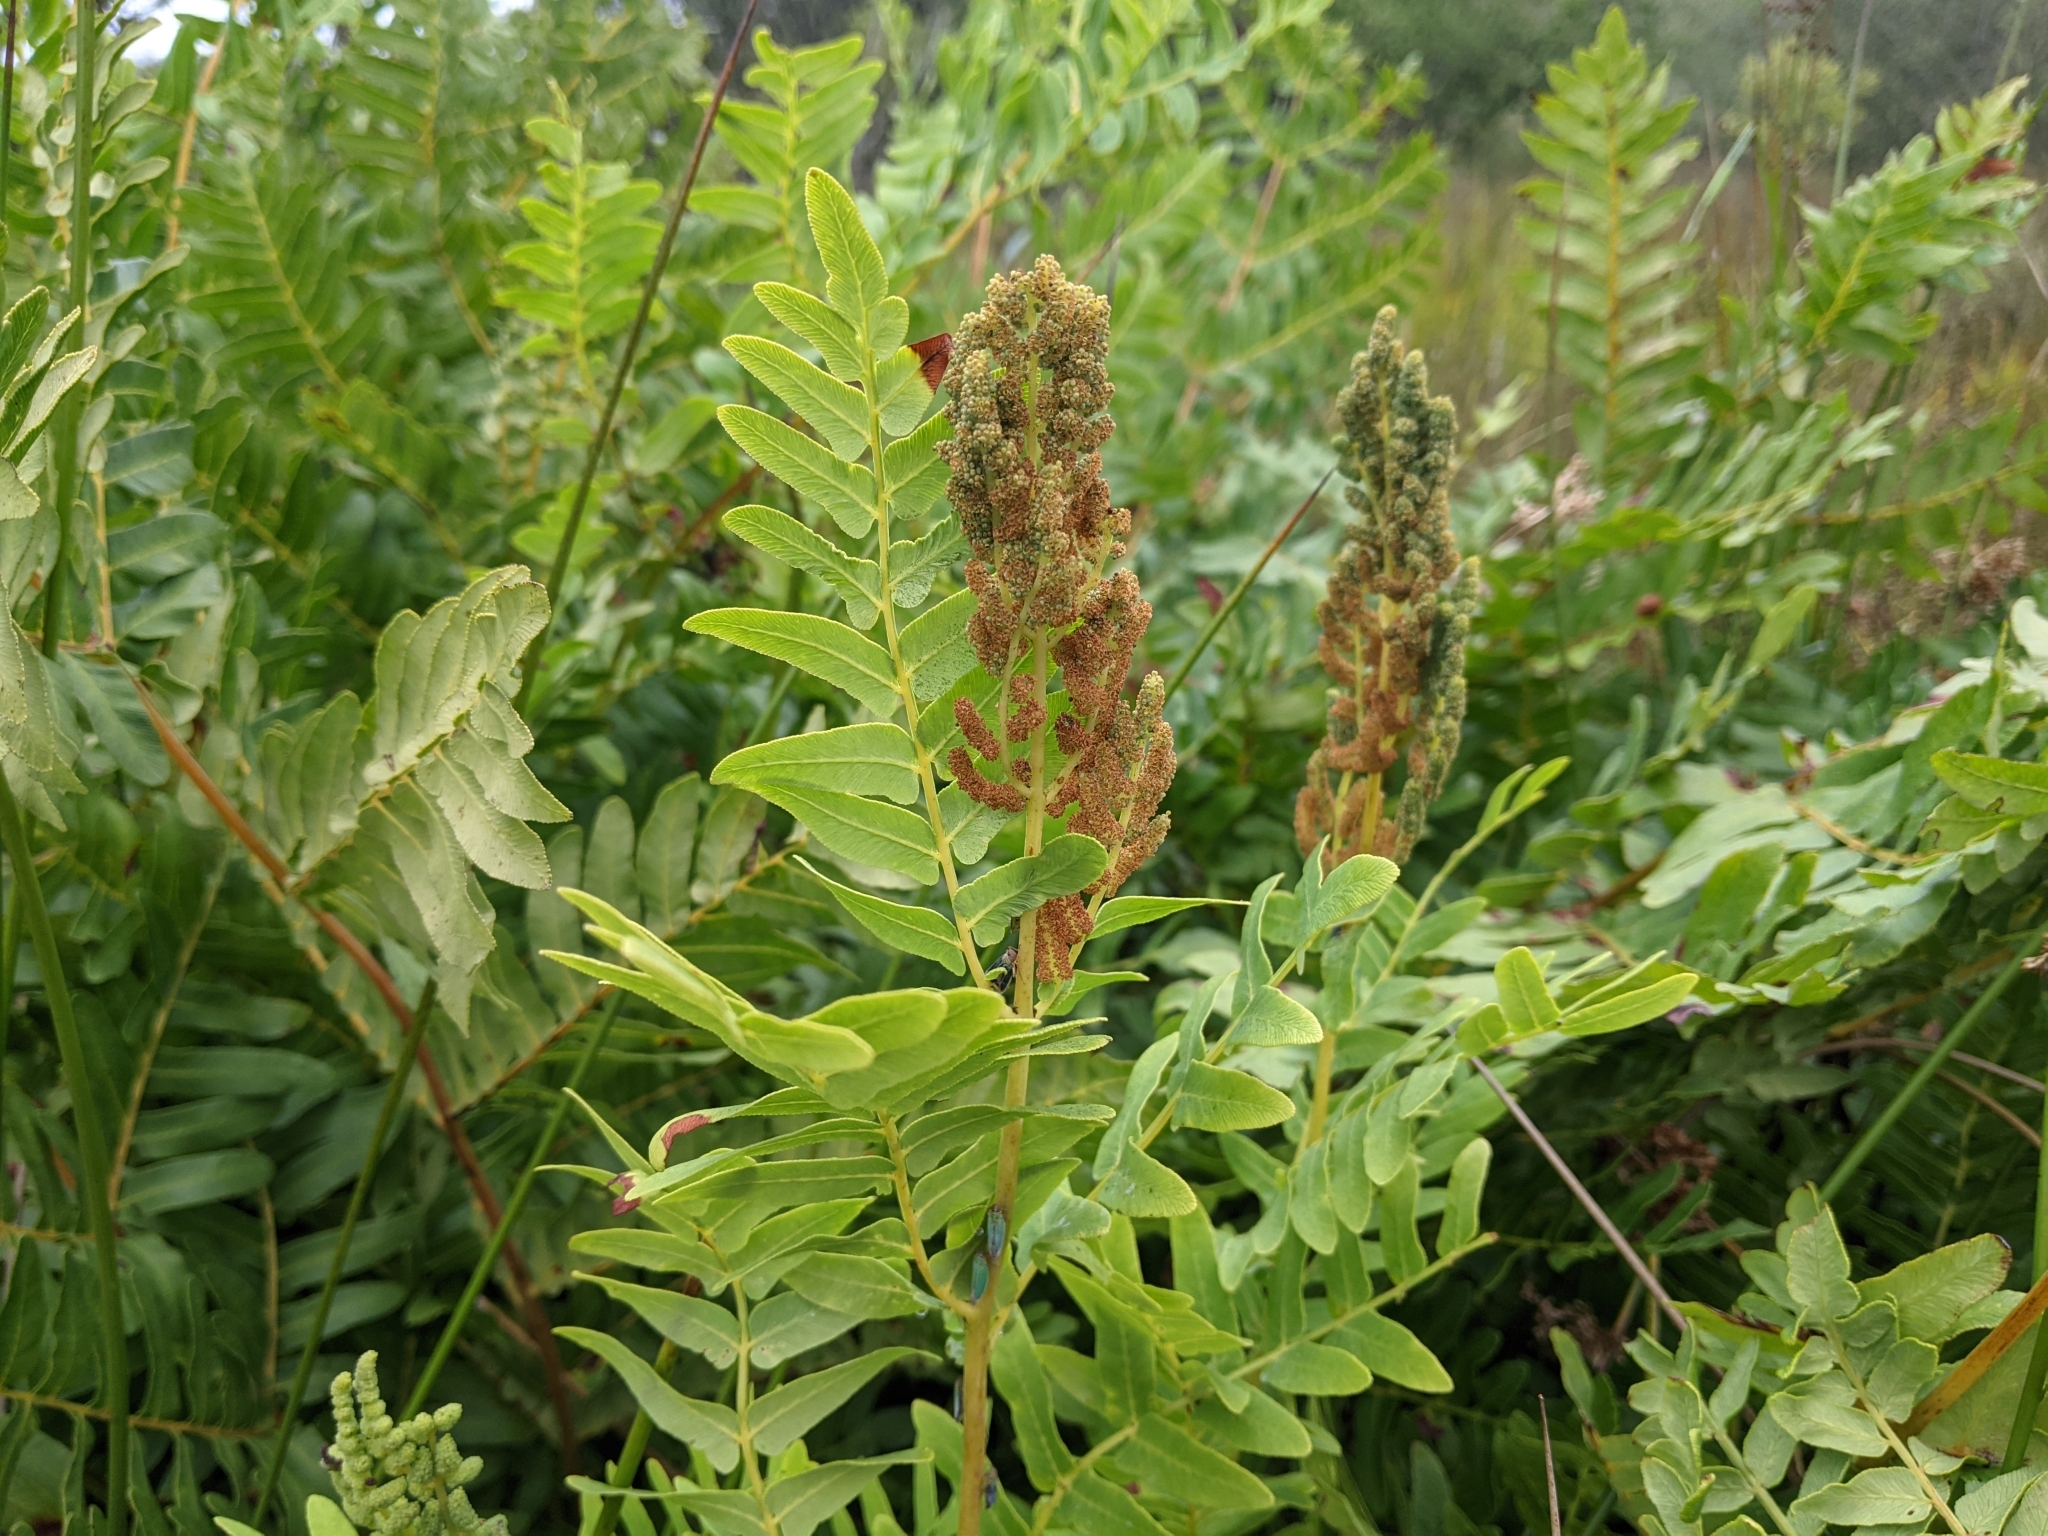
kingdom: Plantae
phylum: Tracheophyta
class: Polypodiopsida
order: Osmundales
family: Osmundaceae
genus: Osmunda
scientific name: Osmunda regalis
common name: Royal fern
